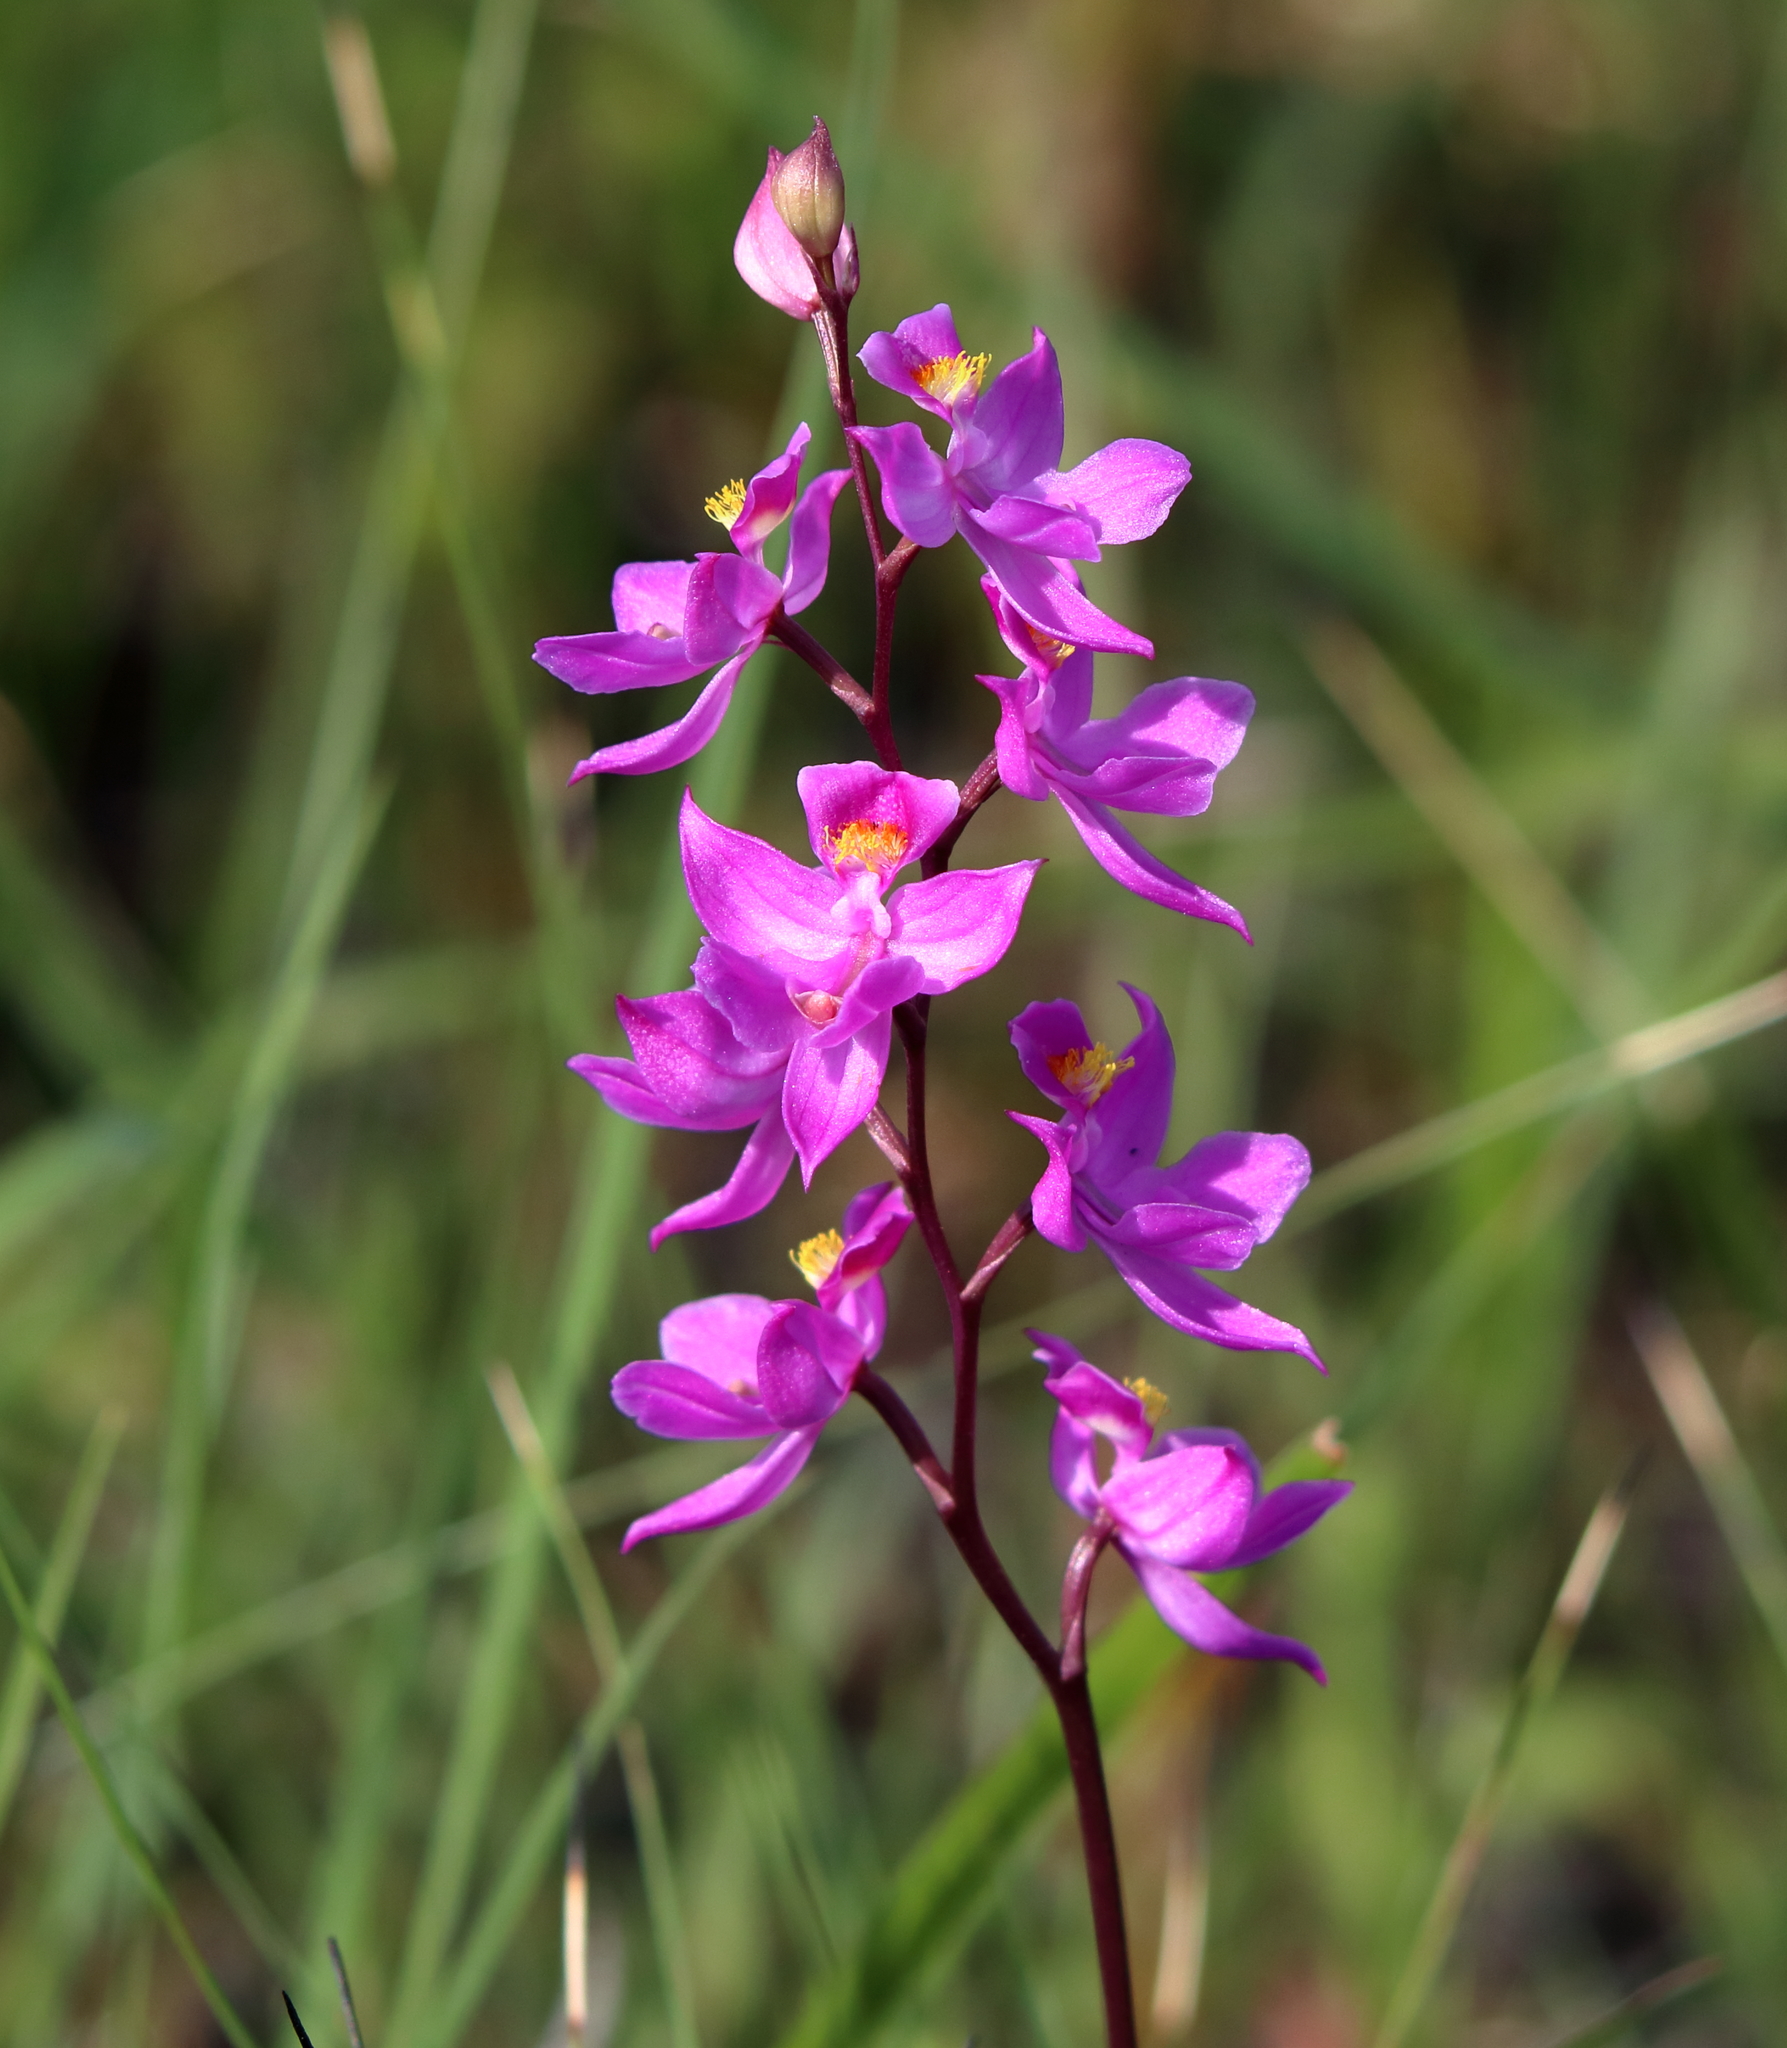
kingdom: Plantae
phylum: Tracheophyta
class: Liliopsida
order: Asparagales
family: Orchidaceae
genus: Calopogon
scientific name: Calopogon multiflorus
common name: Many-flowered grass-pink orchid
